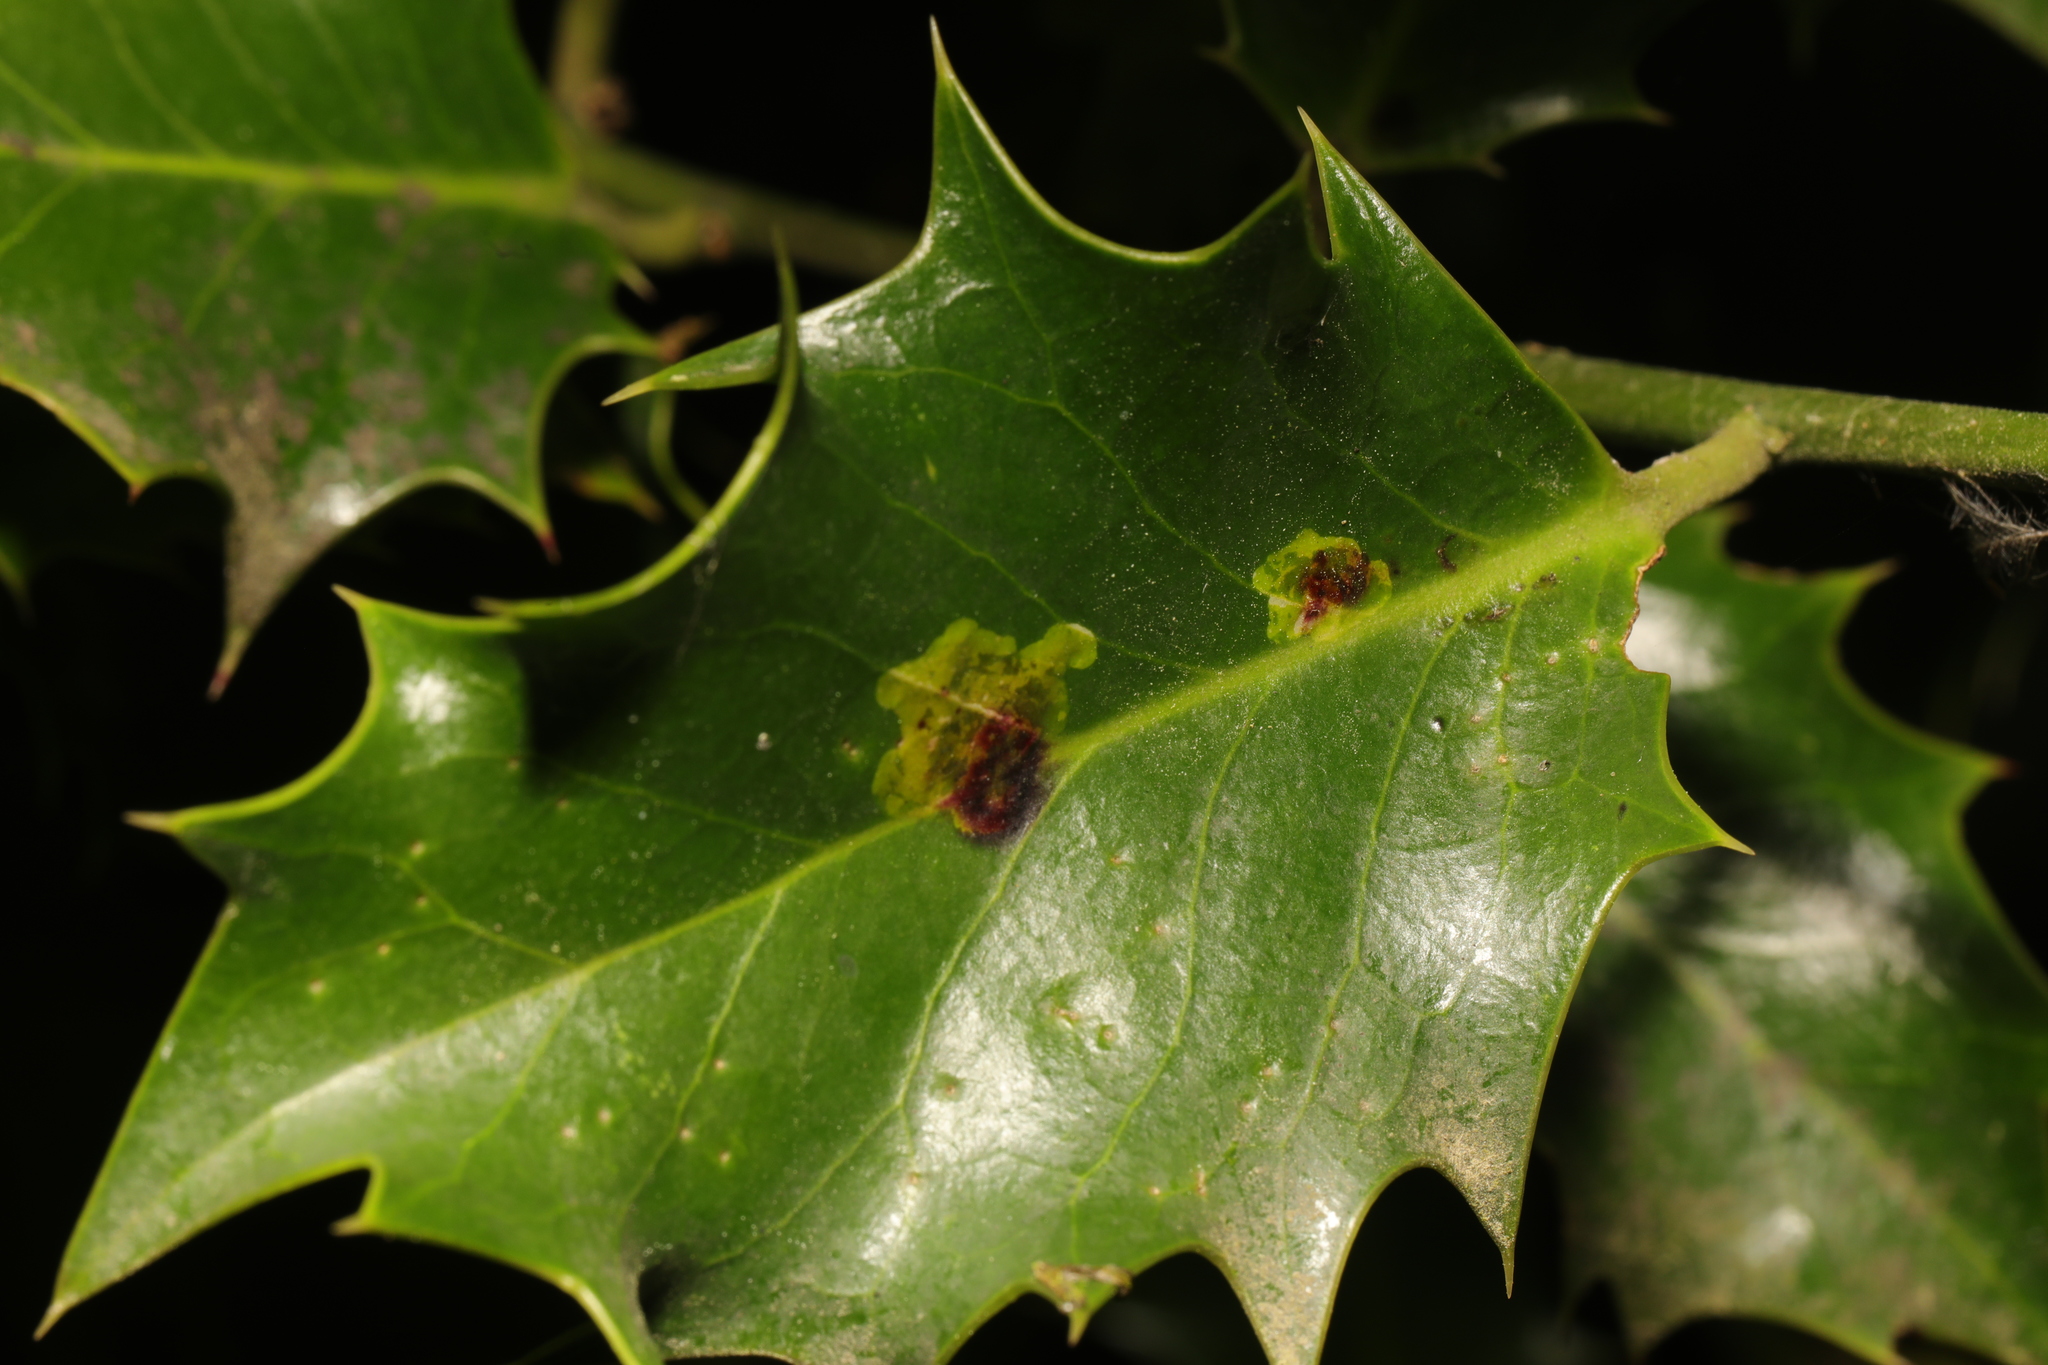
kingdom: Animalia
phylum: Arthropoda
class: Insecta
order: Diptera
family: Agromyzidae
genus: Phytomyza
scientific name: Phytomyza ilicis
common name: Holly leafminer
